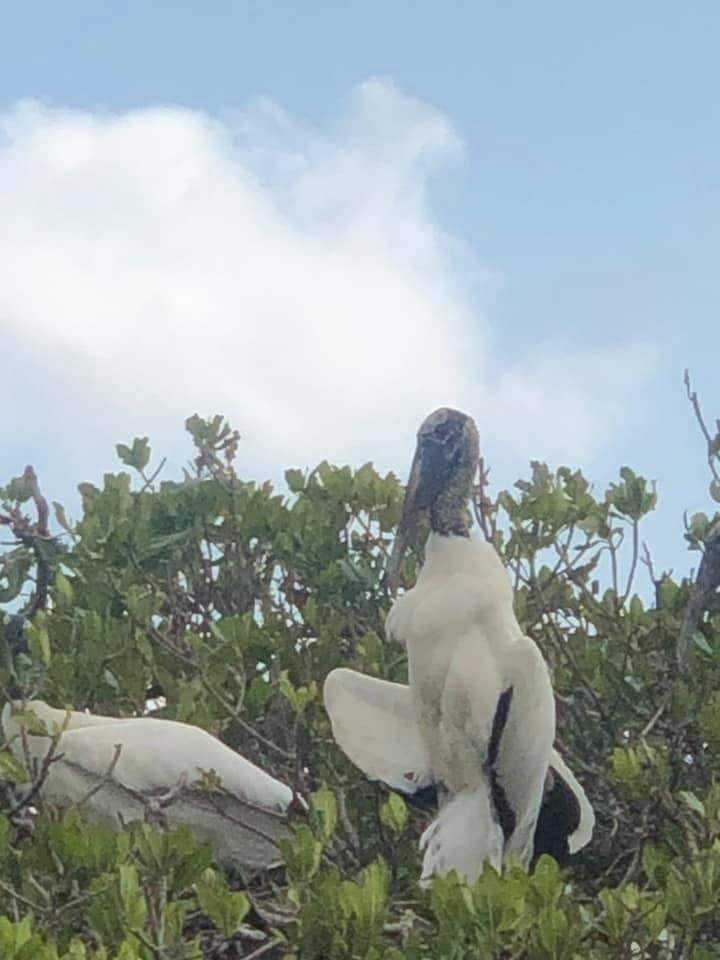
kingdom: Animalia
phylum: Chordata
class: Aves
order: Ciconiiformes
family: Ciconiidae
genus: Mycteria
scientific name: Mycteria americana
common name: Wood stork
